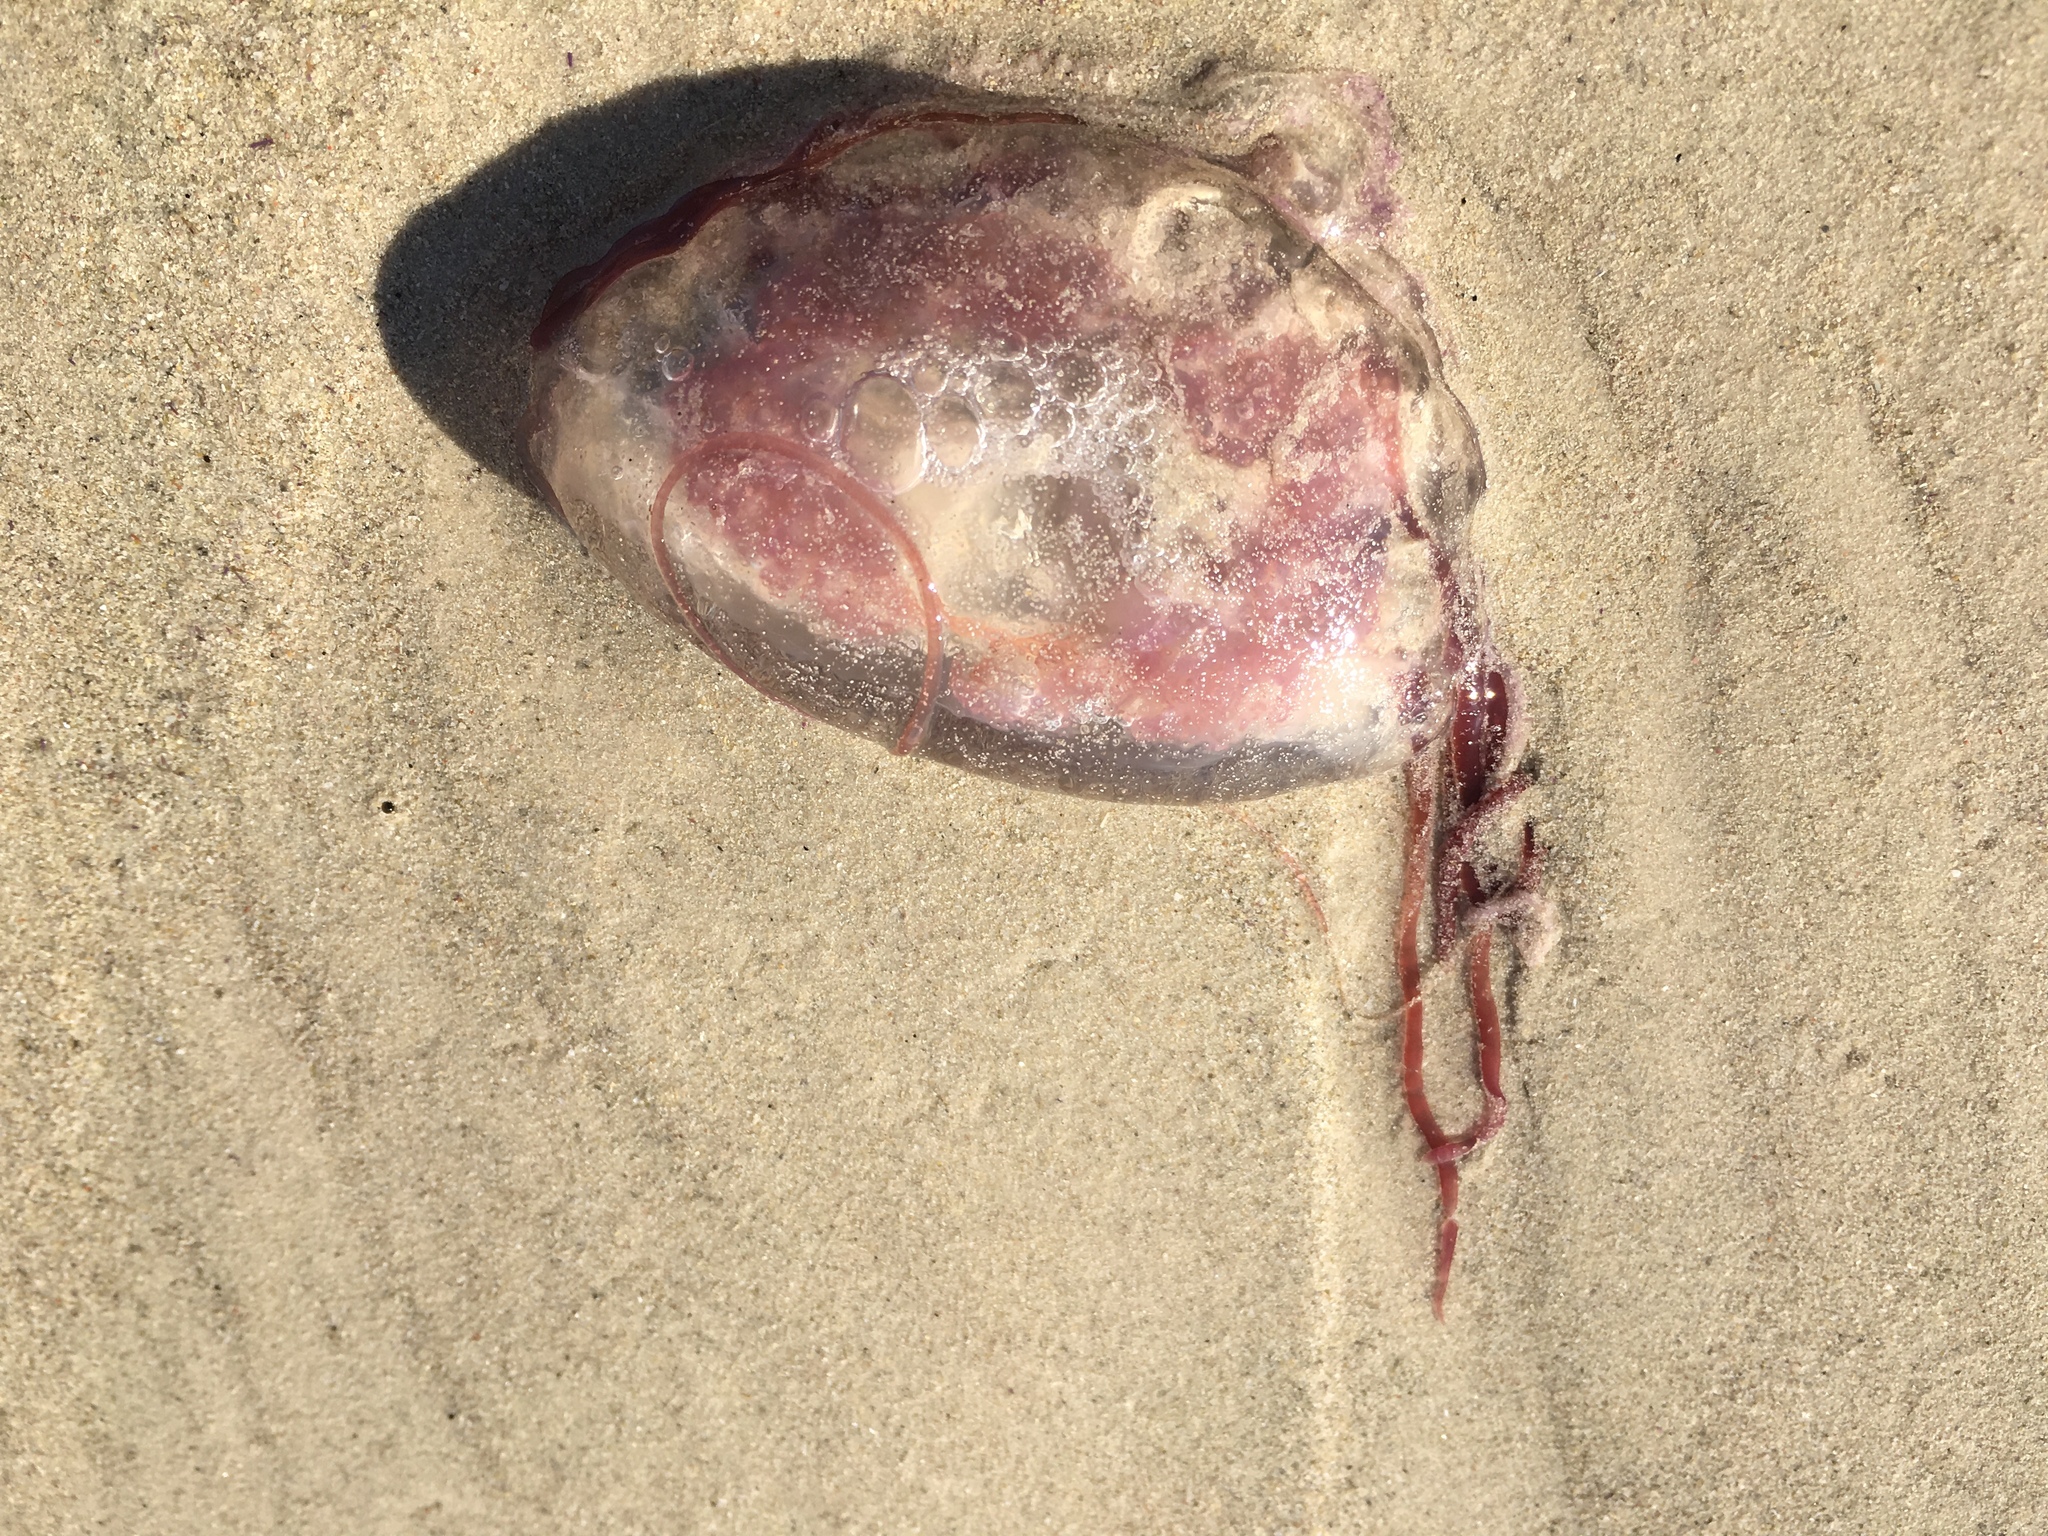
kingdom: Animalia
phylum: Cnidaria
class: Scyphozoa
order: Semaeostomeae
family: Pelagiidae
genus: Pelagia
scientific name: Pelagia noctiluca
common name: Mauve stinger
